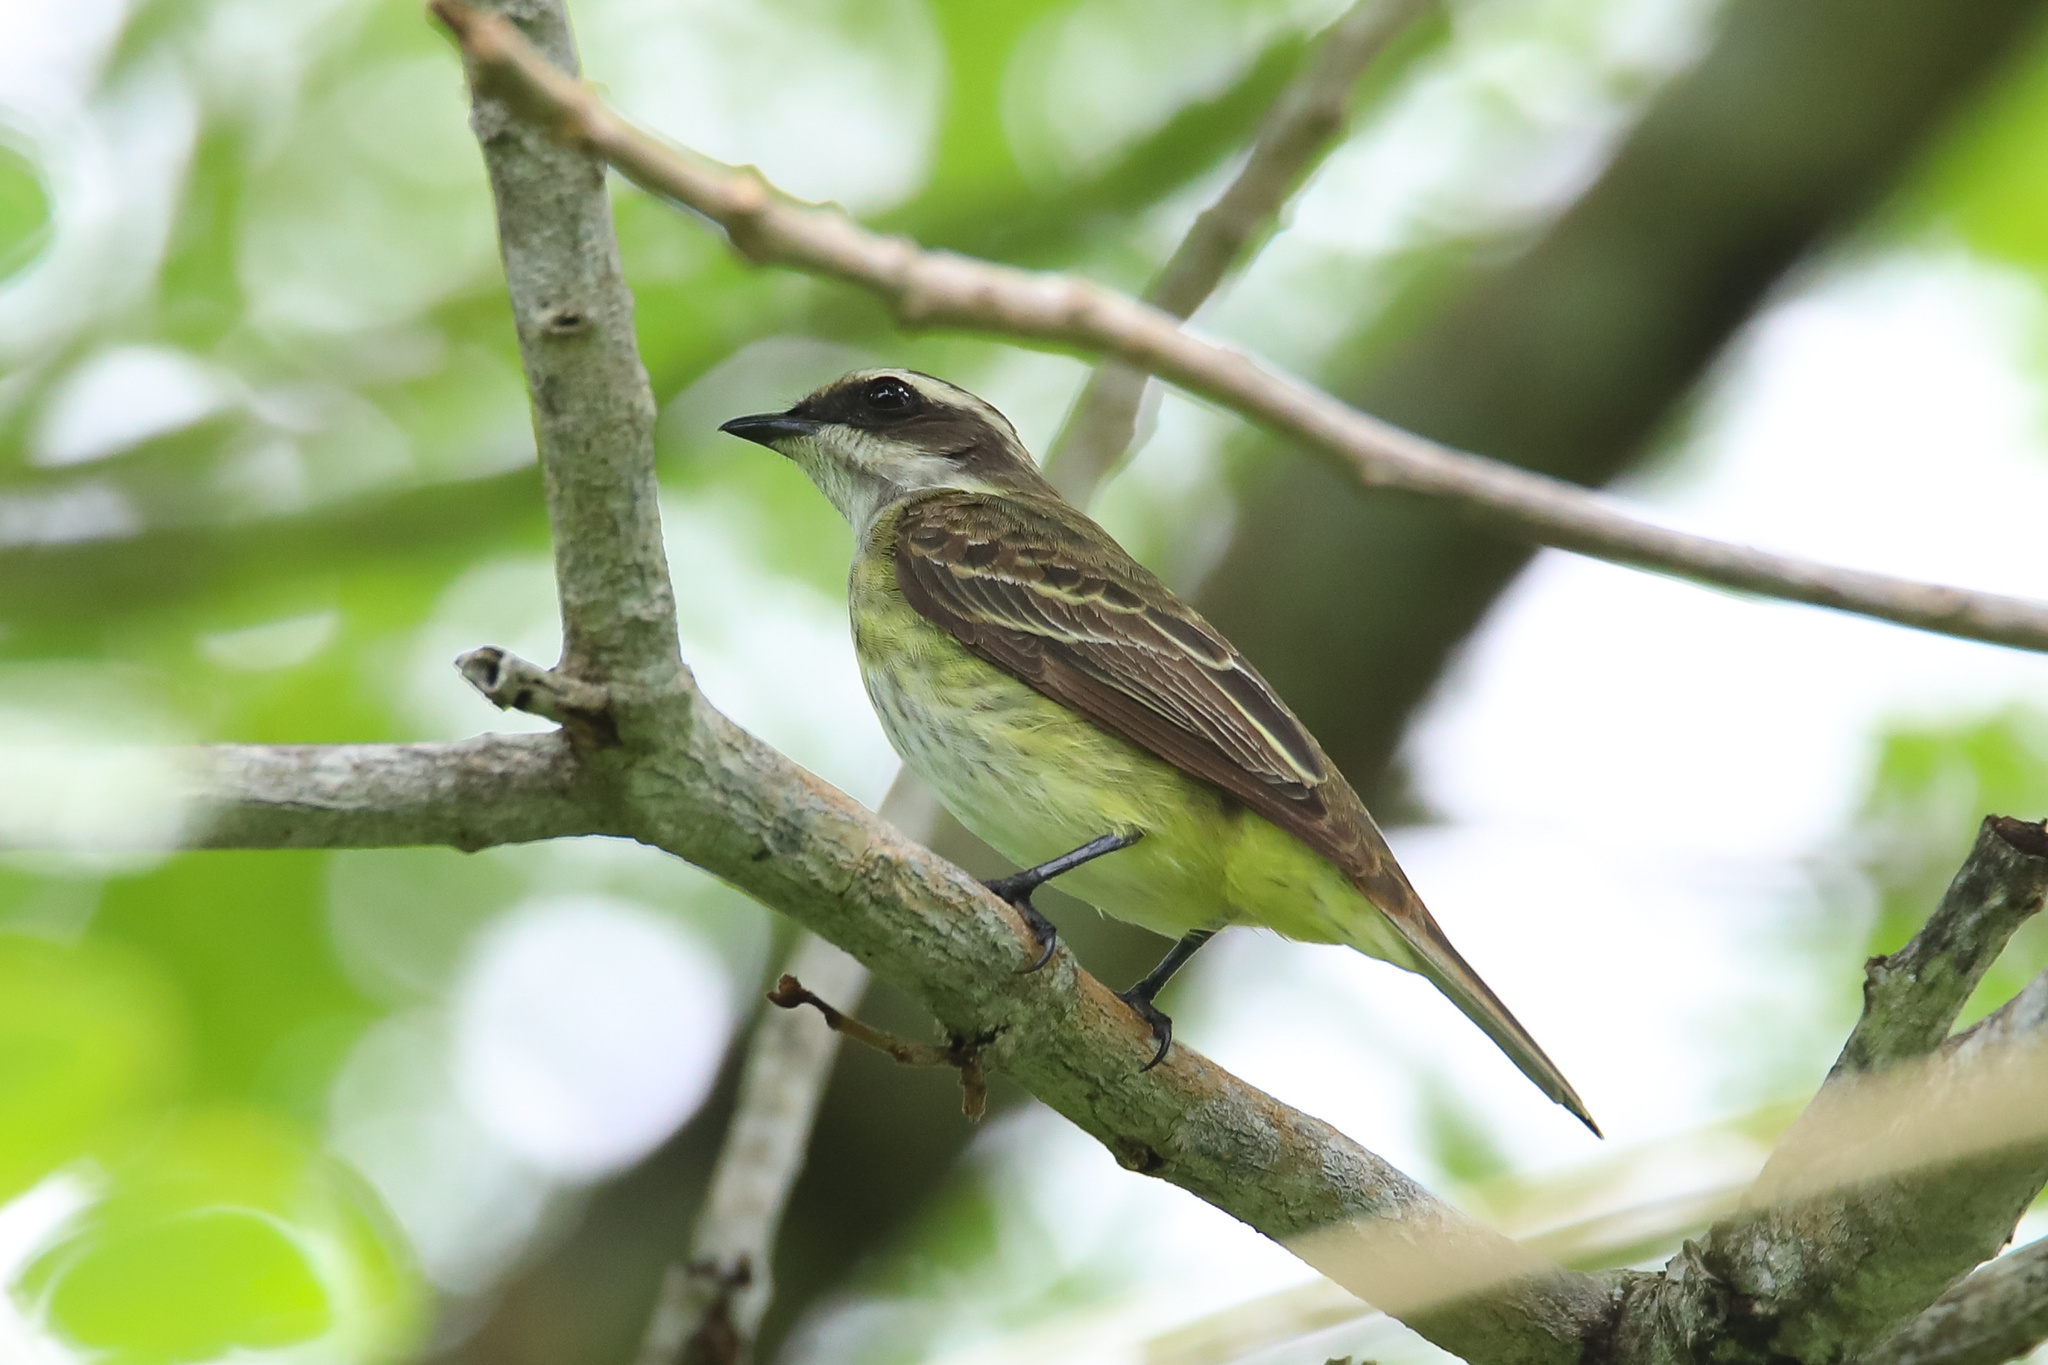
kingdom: Animalia
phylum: Chordata
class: Aves
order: Passeriformes
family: Tyrannidae
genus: Legatus
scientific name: Legatus leucophaius
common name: Piratic flycatcher
